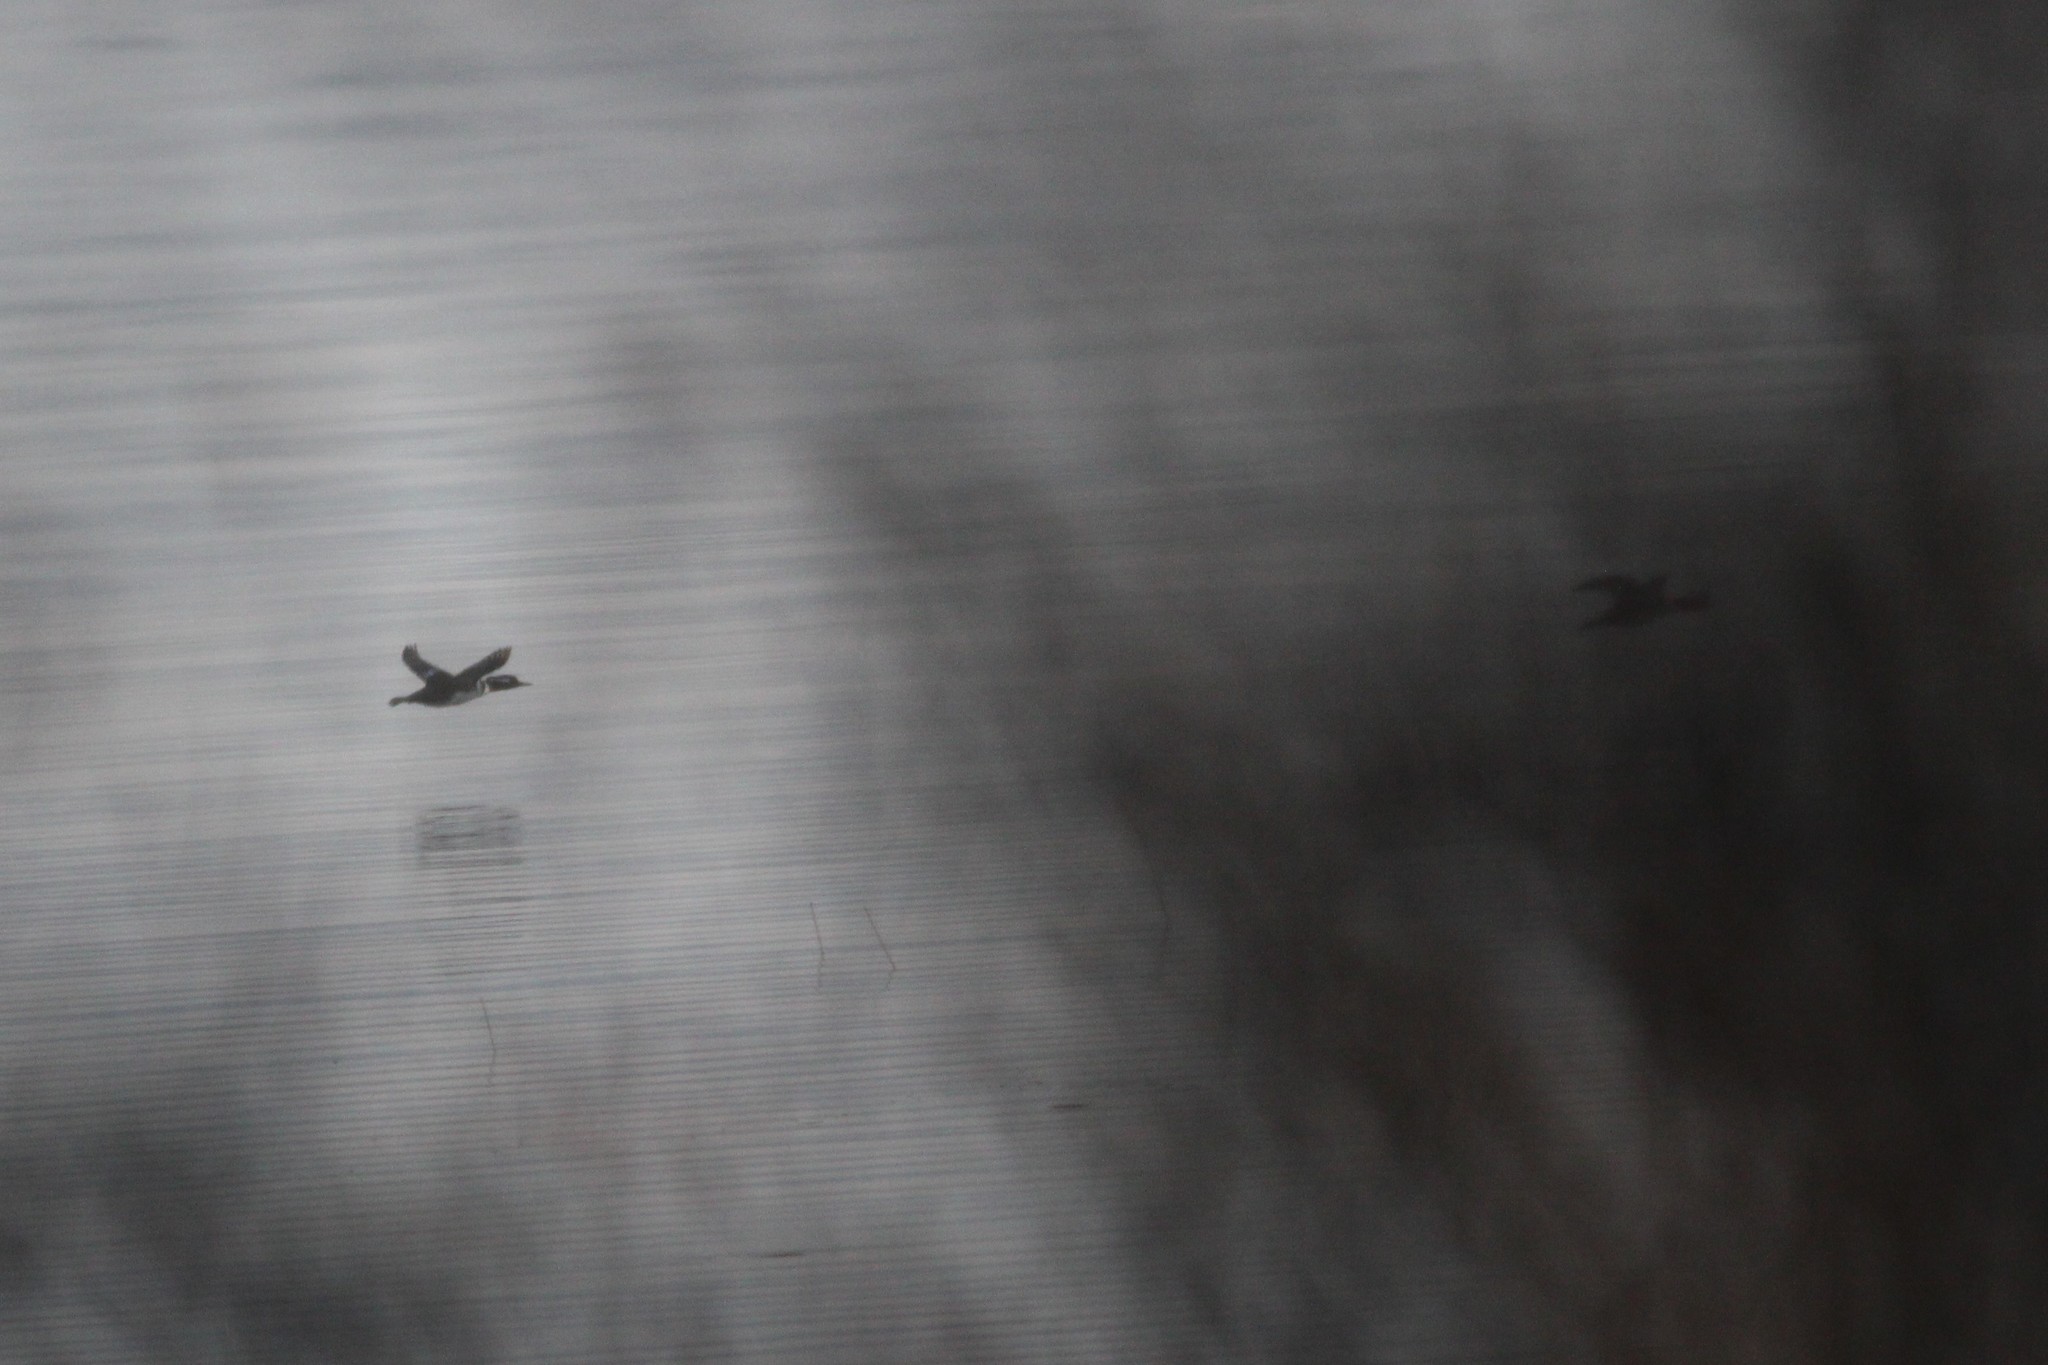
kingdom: Animalia
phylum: Chordata
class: Aves
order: Anseriformes
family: Anatidae
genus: Lophodytes
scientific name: Lophodytes cucullatus
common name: Hooded merganser
